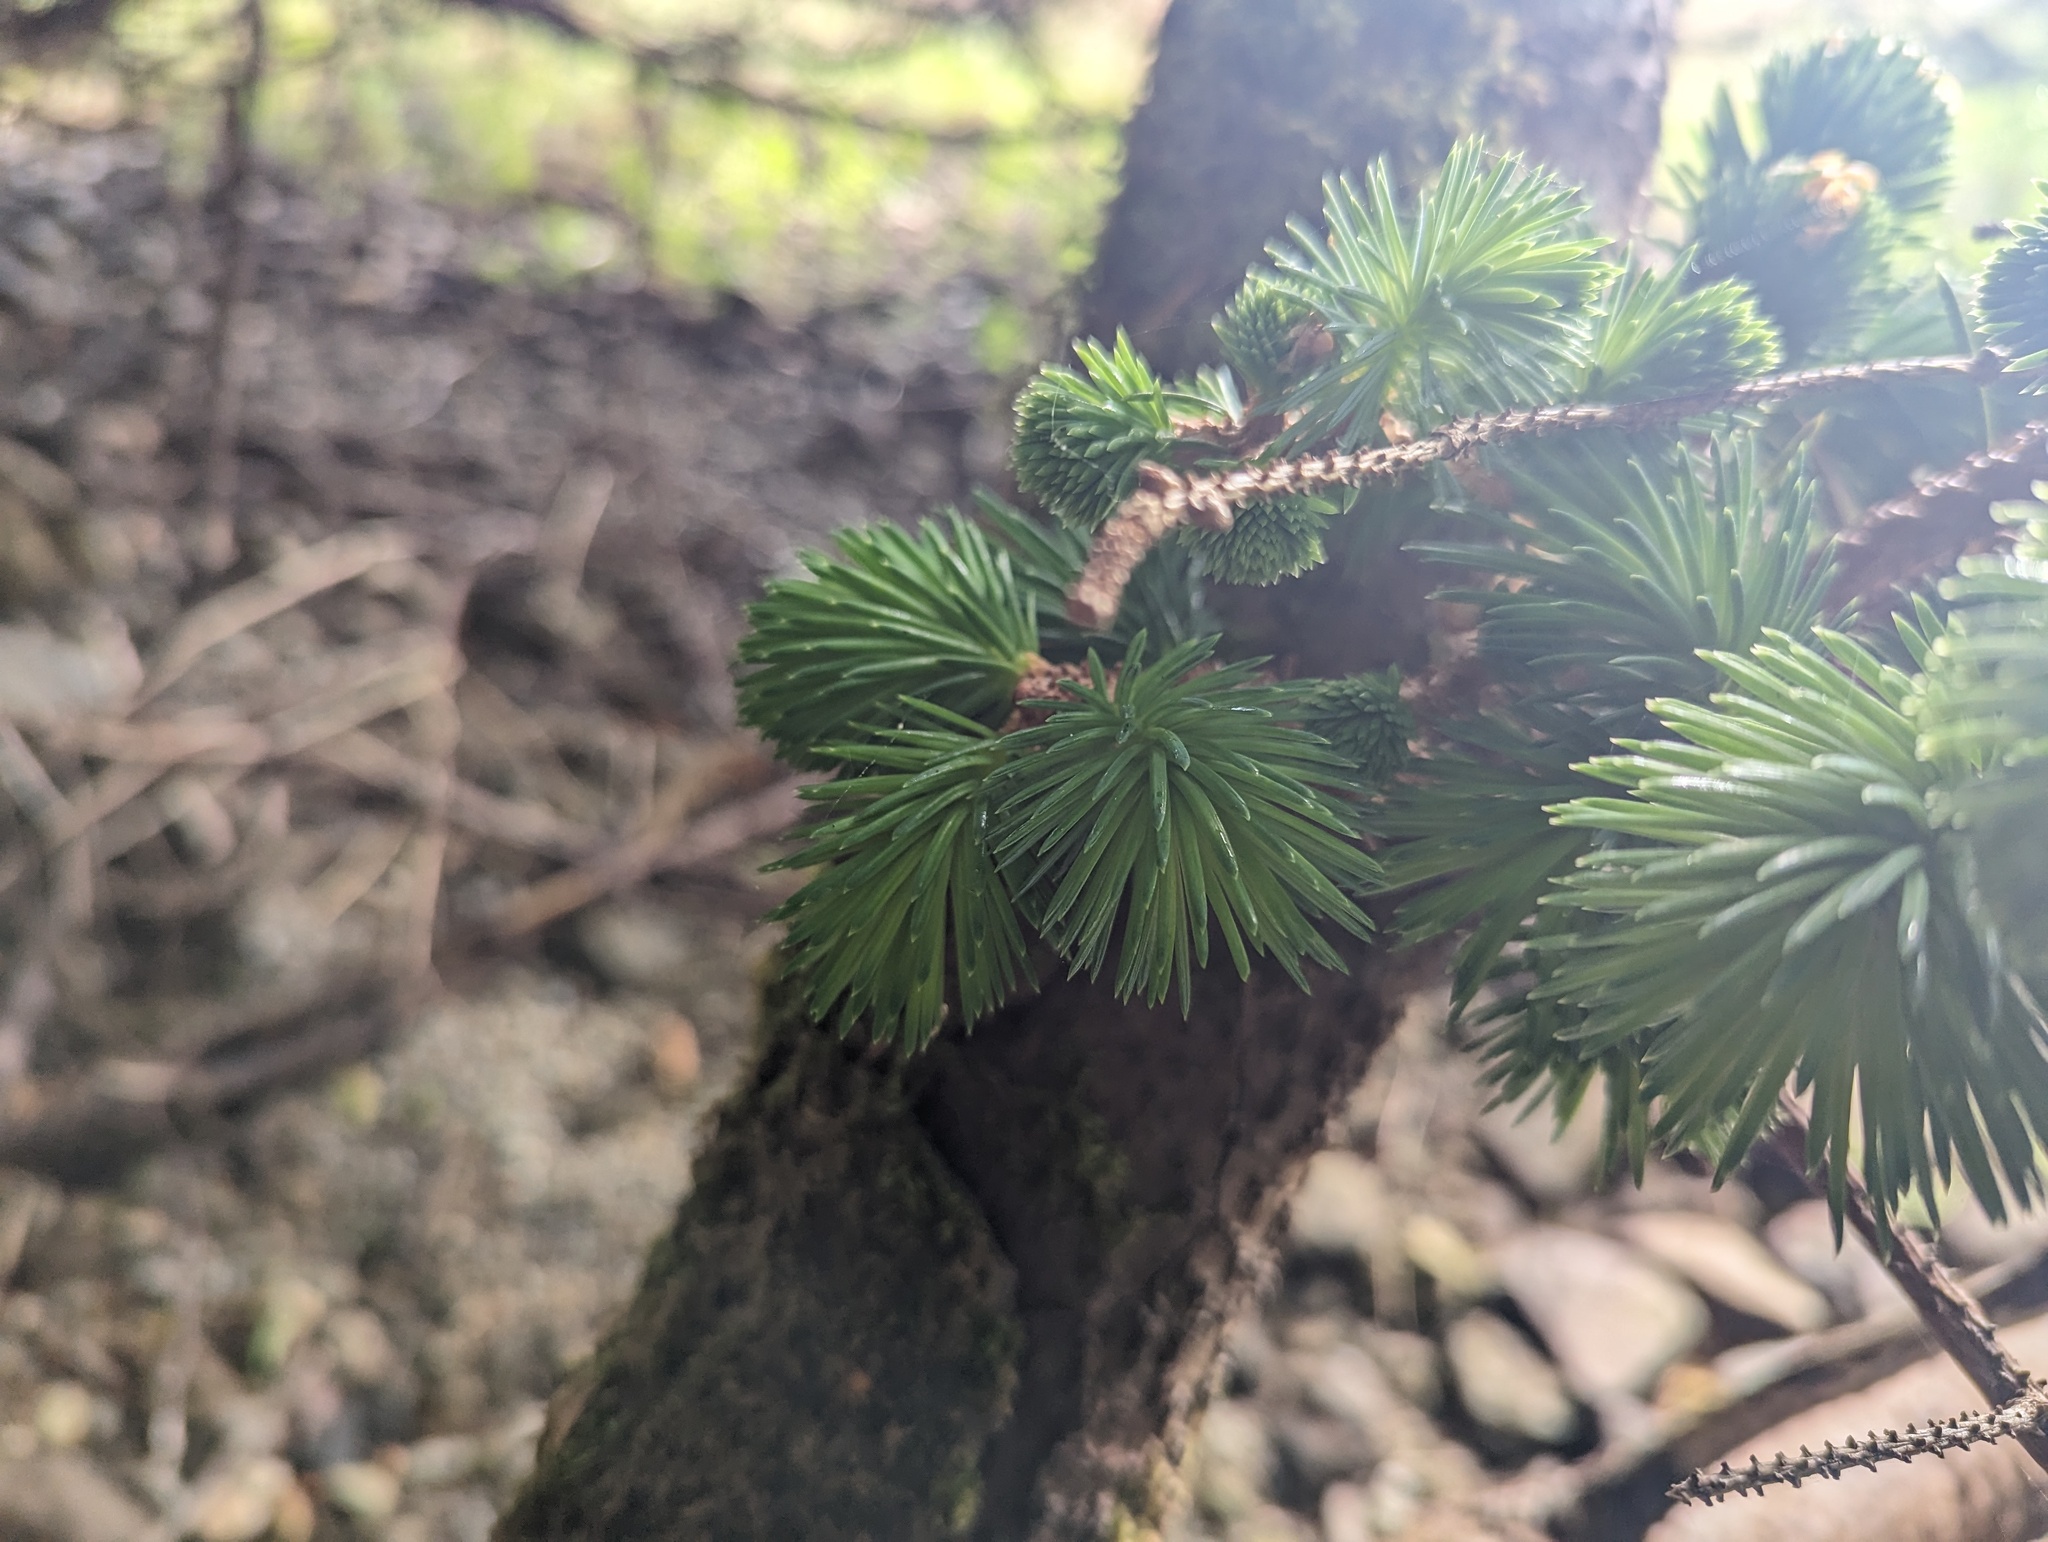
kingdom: Plantae
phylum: Tracheophyta
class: Pinopsida
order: Pinales
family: Pinaceae
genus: Picea
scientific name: Picea sitchensis
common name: Sitka spruce
